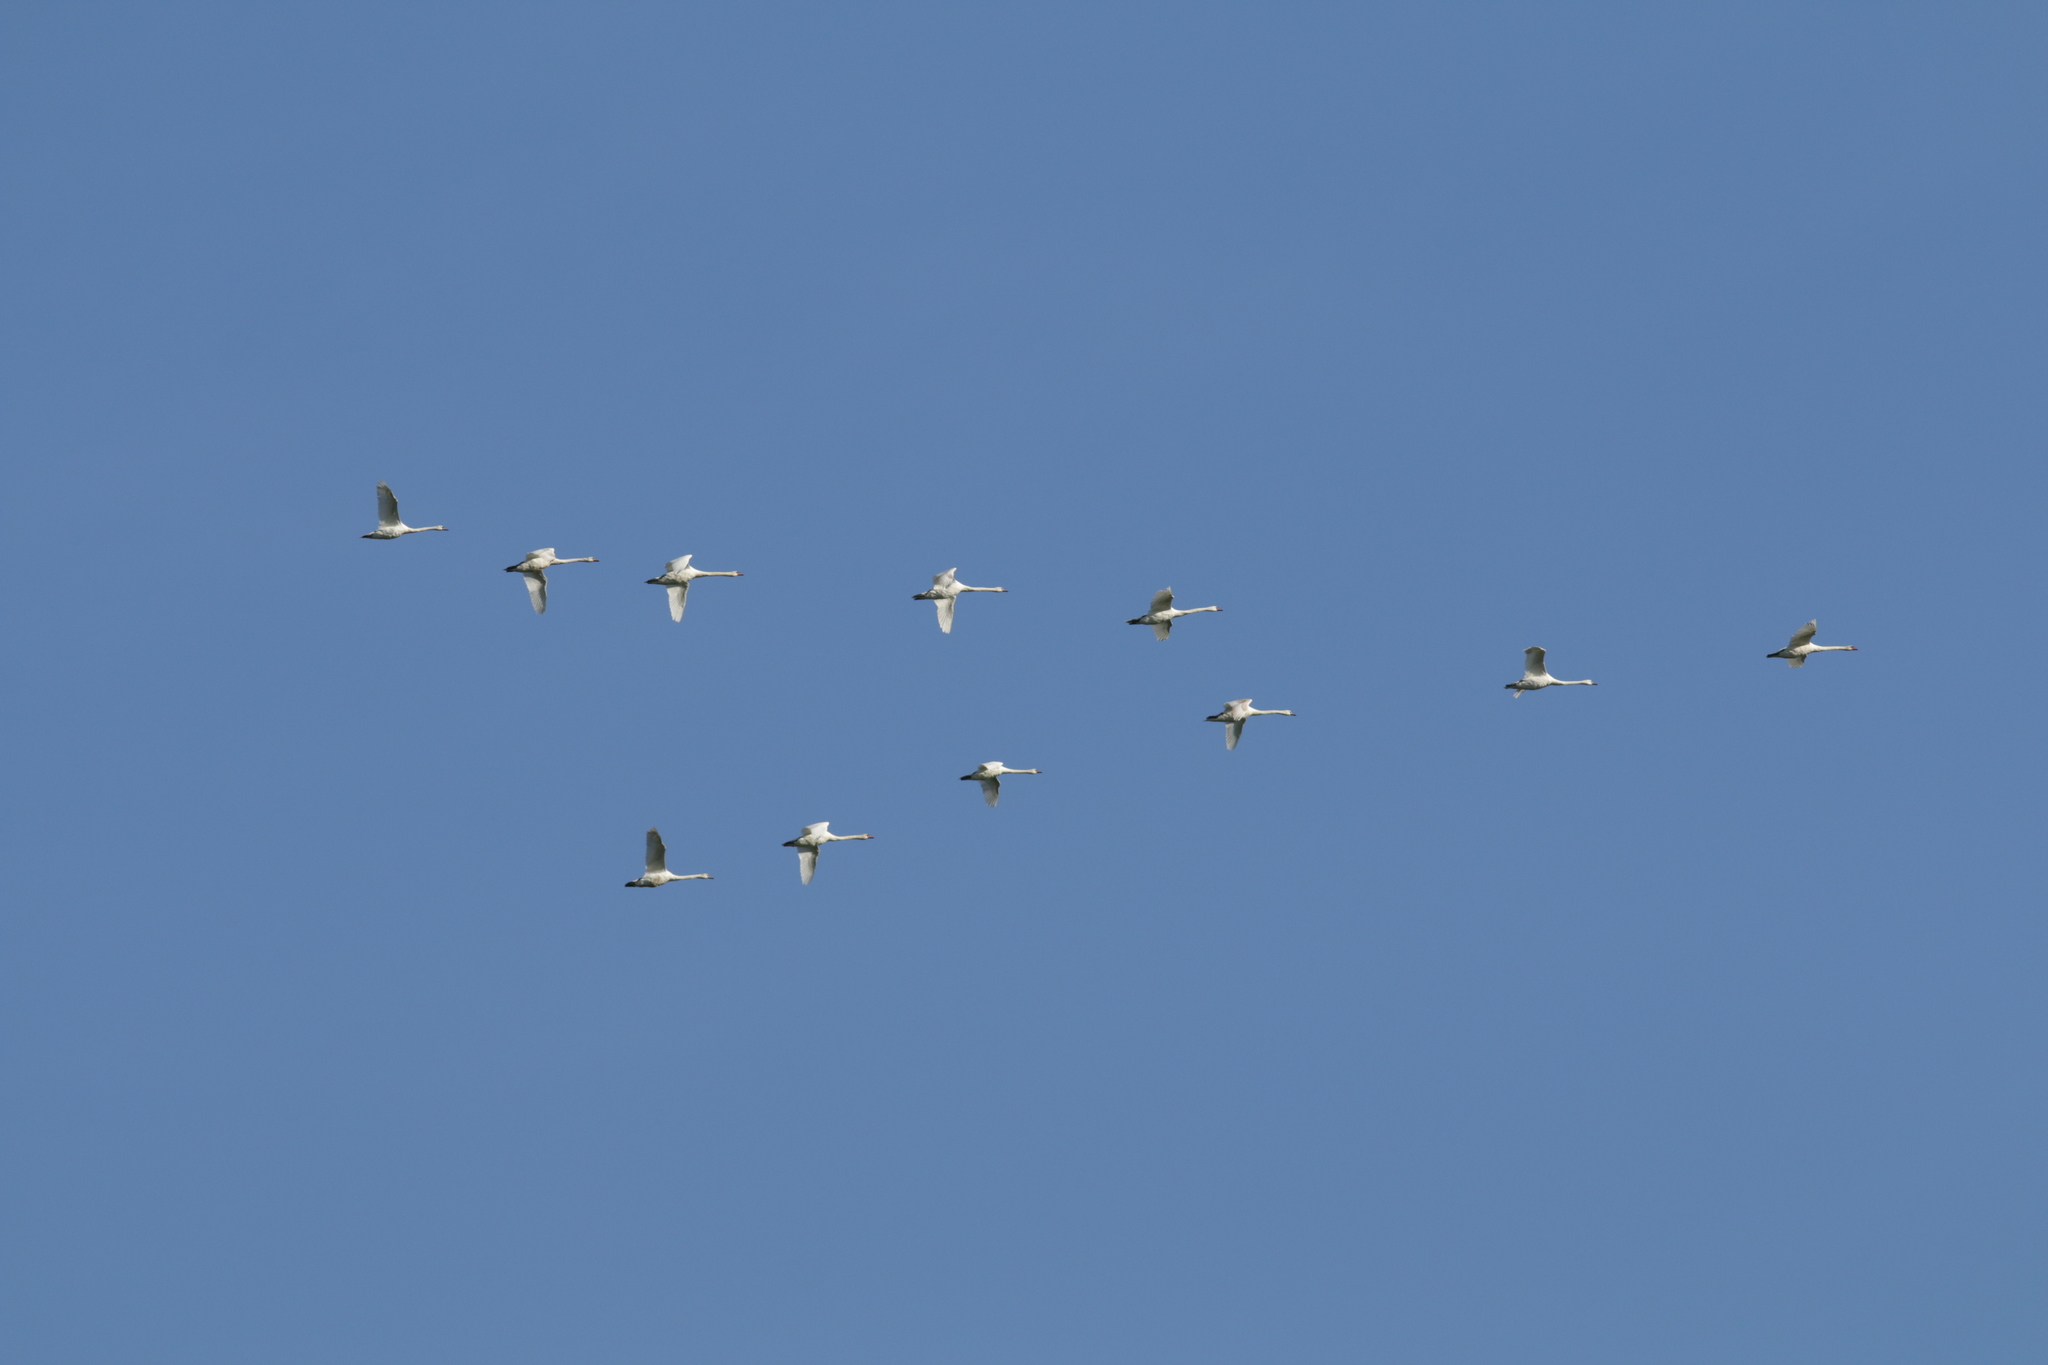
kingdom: Animalia
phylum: Chordata
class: Aves
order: Anseriformes
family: Anatidae
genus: Cygnus
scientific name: Cygnus olor
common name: Mute swan
